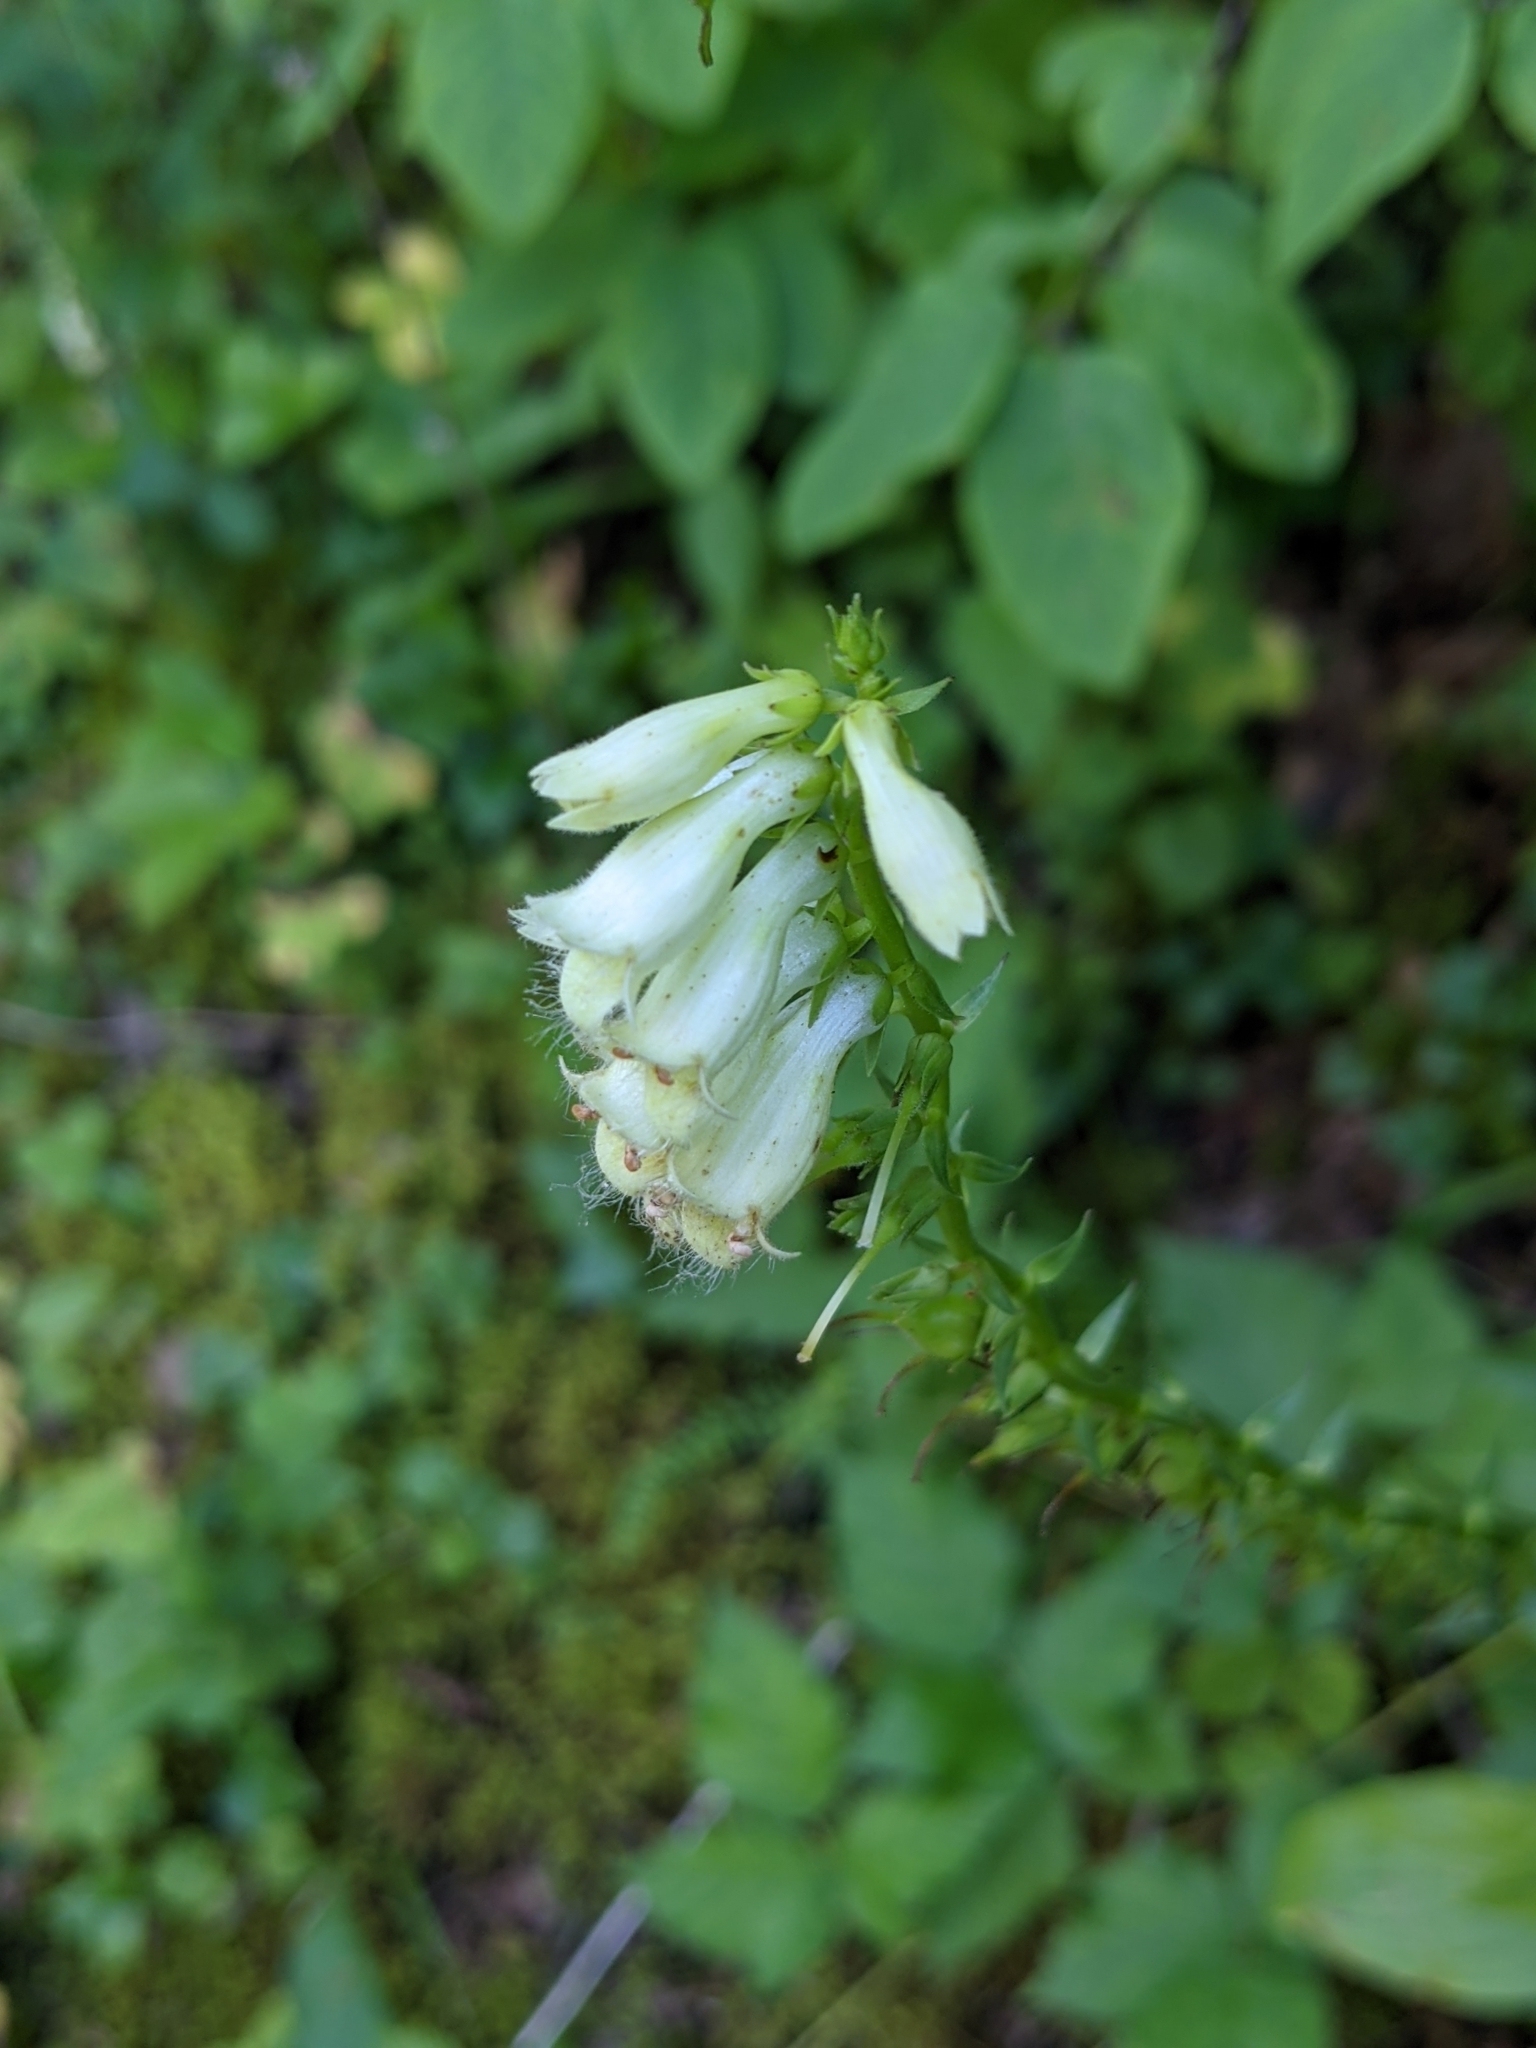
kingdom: Plantae
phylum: Tracheophyta
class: Magnoliopsida
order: Lamiales
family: Plantaginaceae
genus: Digitalis
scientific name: Digitalis lutea
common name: Straw foxglove
